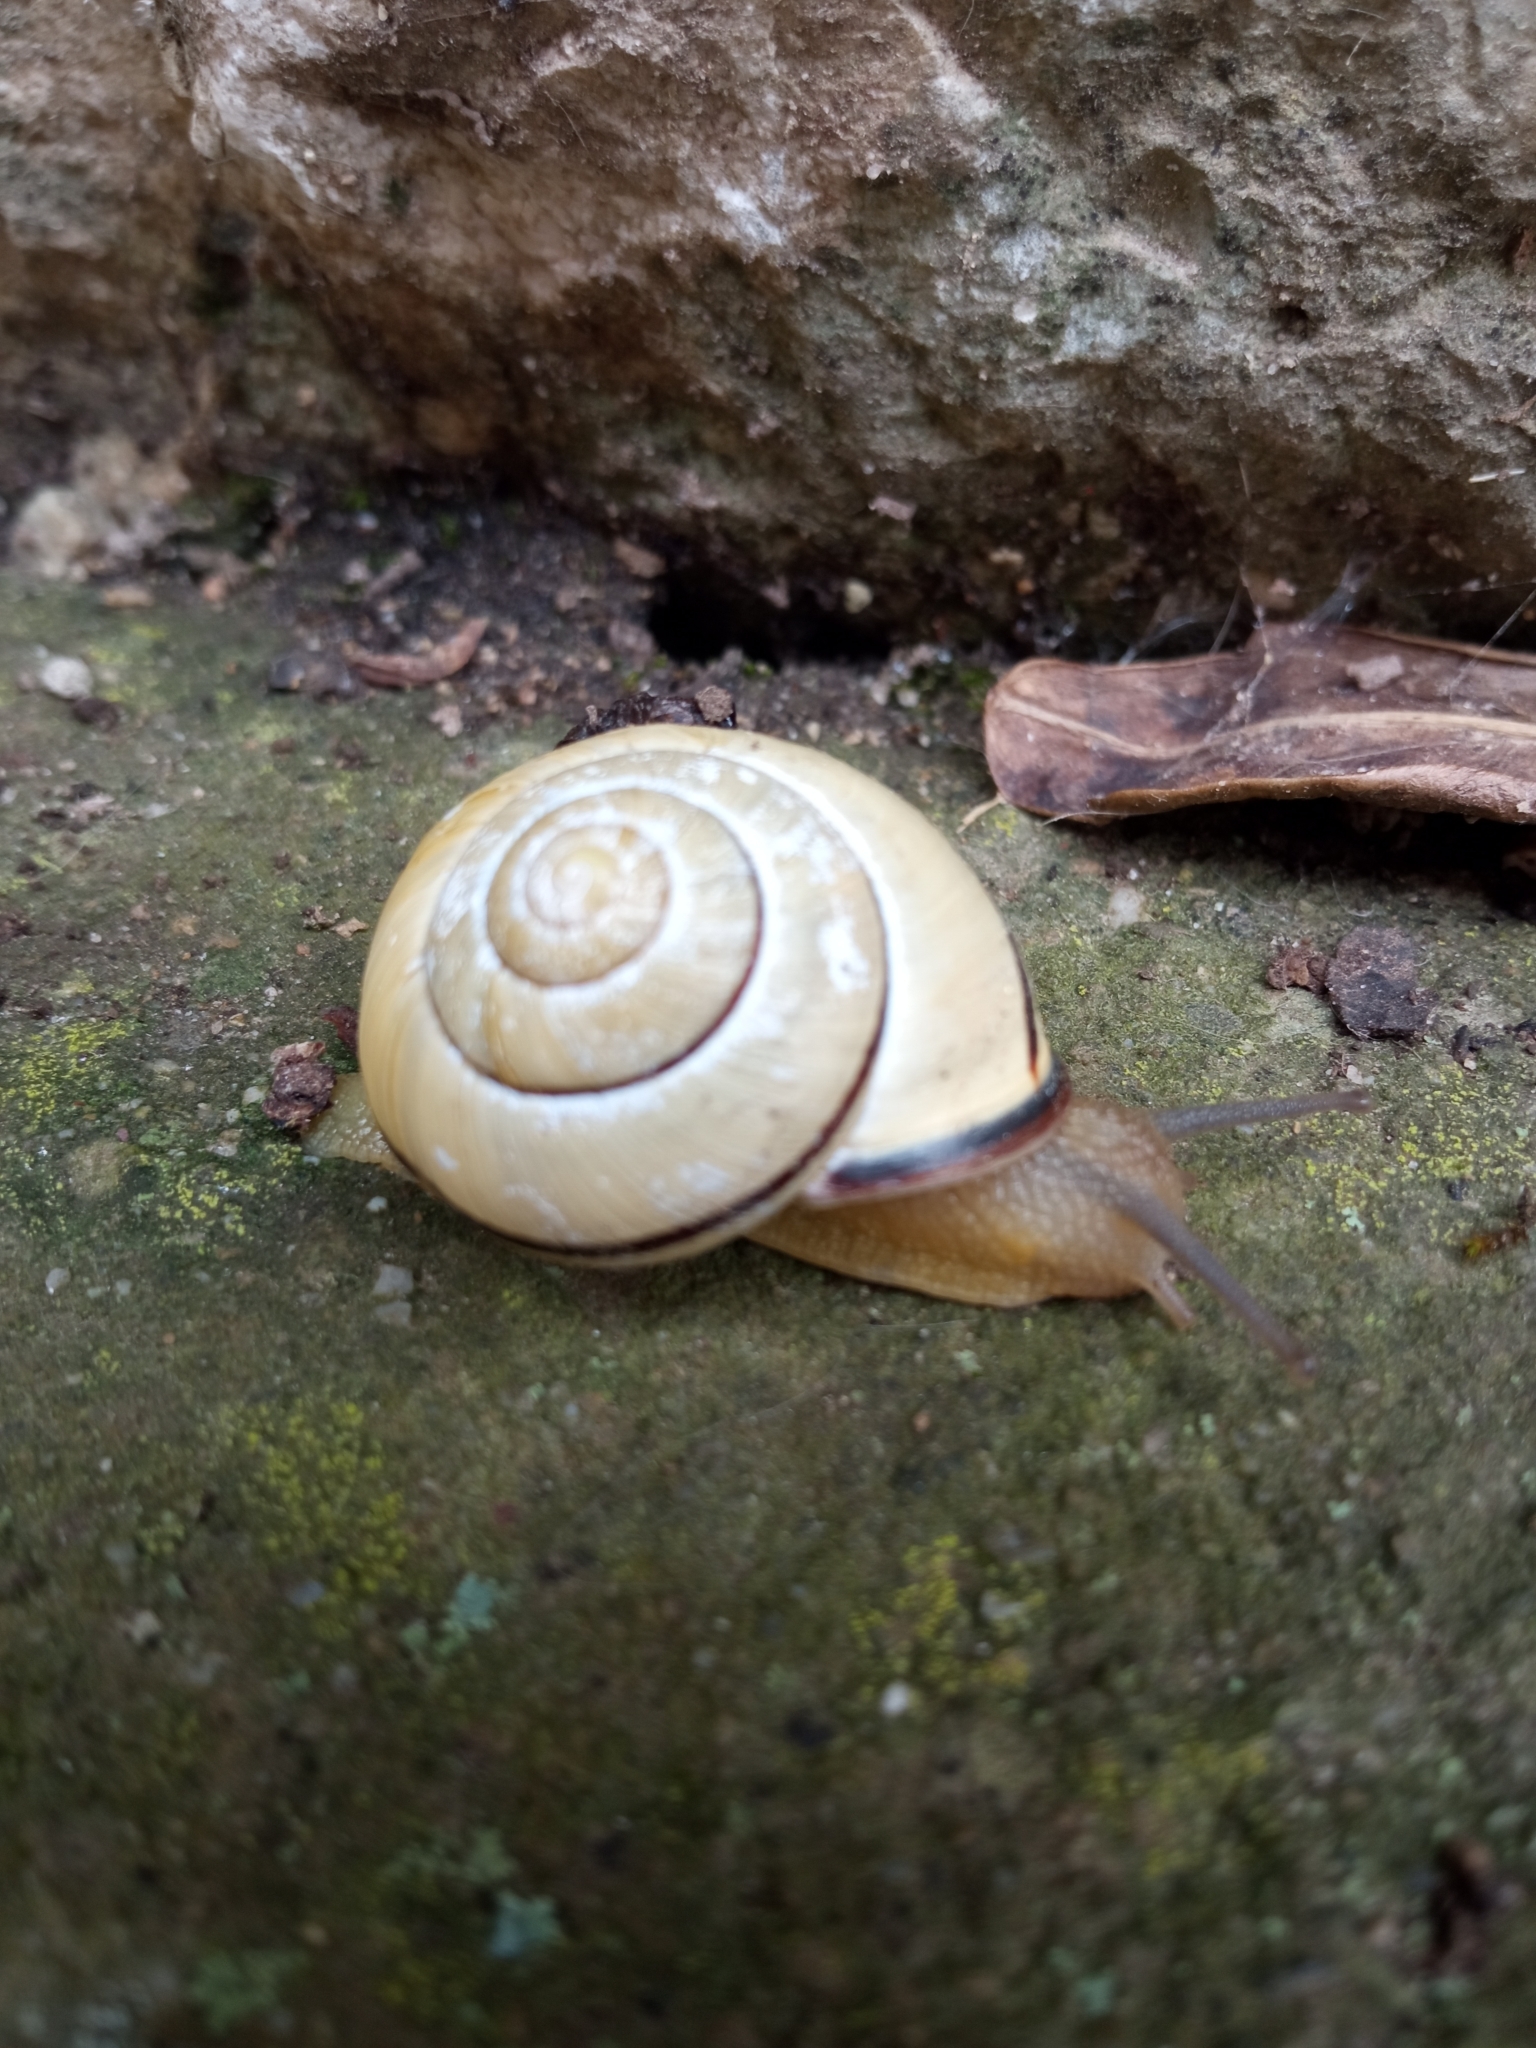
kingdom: Animalia
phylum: Mollusca
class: Gastropoda
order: Stylommatophora
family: Helicidae
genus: Cepaea
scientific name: Cepaea nemoralis
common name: Grovesnail
